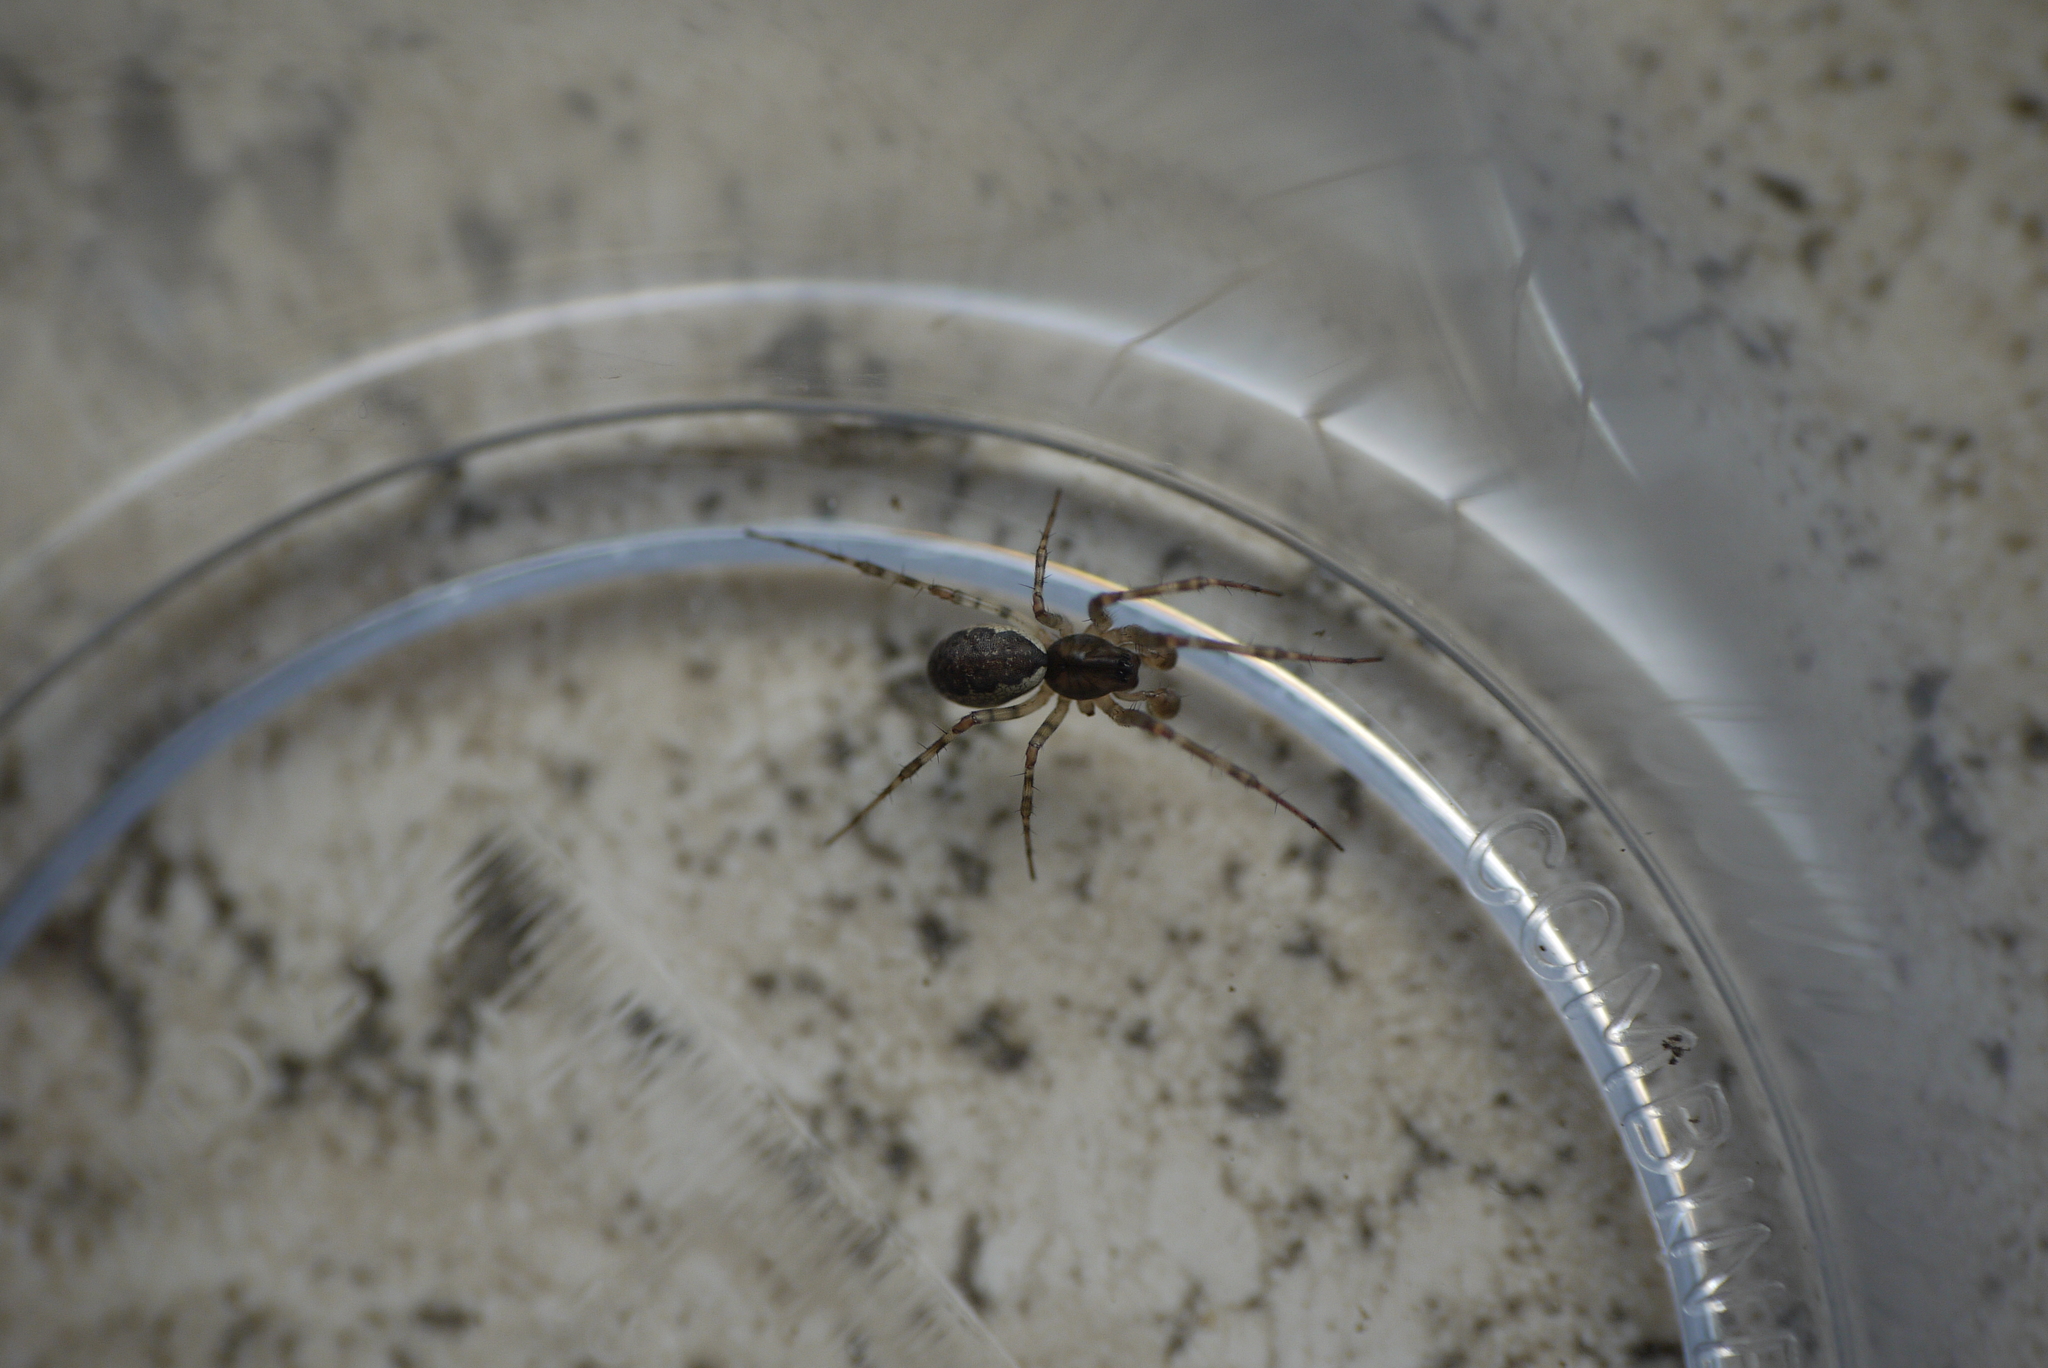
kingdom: Animalia
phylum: Arthropoda
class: Arachnida
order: Araneae
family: Linyphiidae
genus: Neriene
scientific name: Neriene montana
